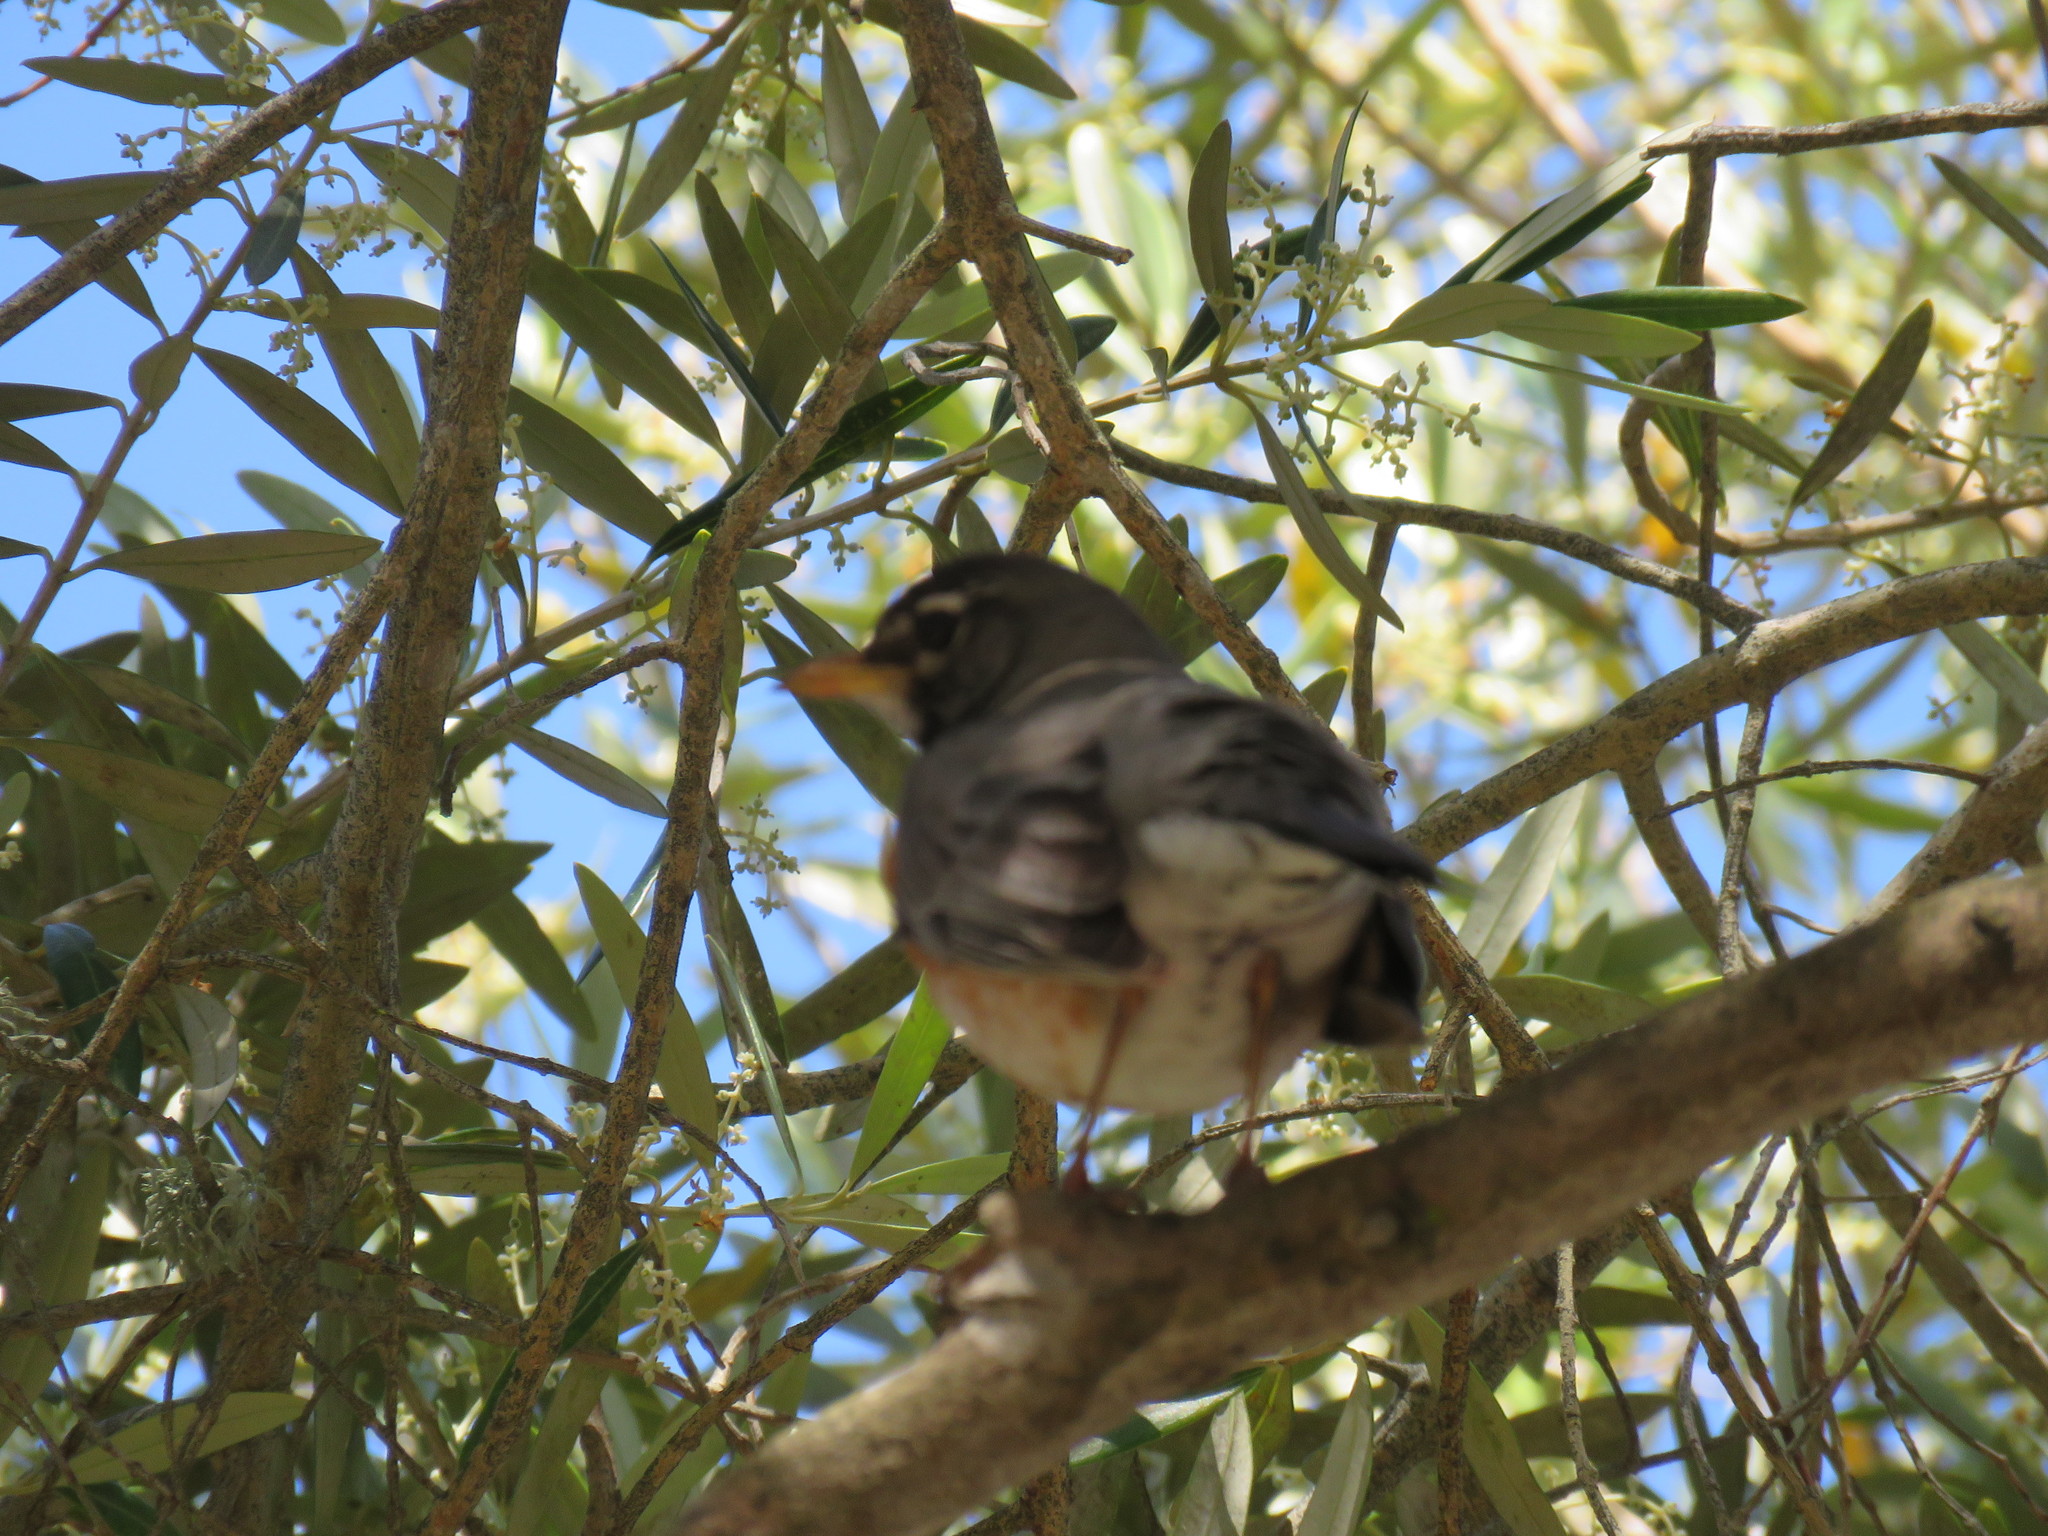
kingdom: Animalia
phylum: Chordata
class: Aves
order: Passeriformes
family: Turdidae
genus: Turdus
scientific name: Turdus migratorius
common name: American robin
